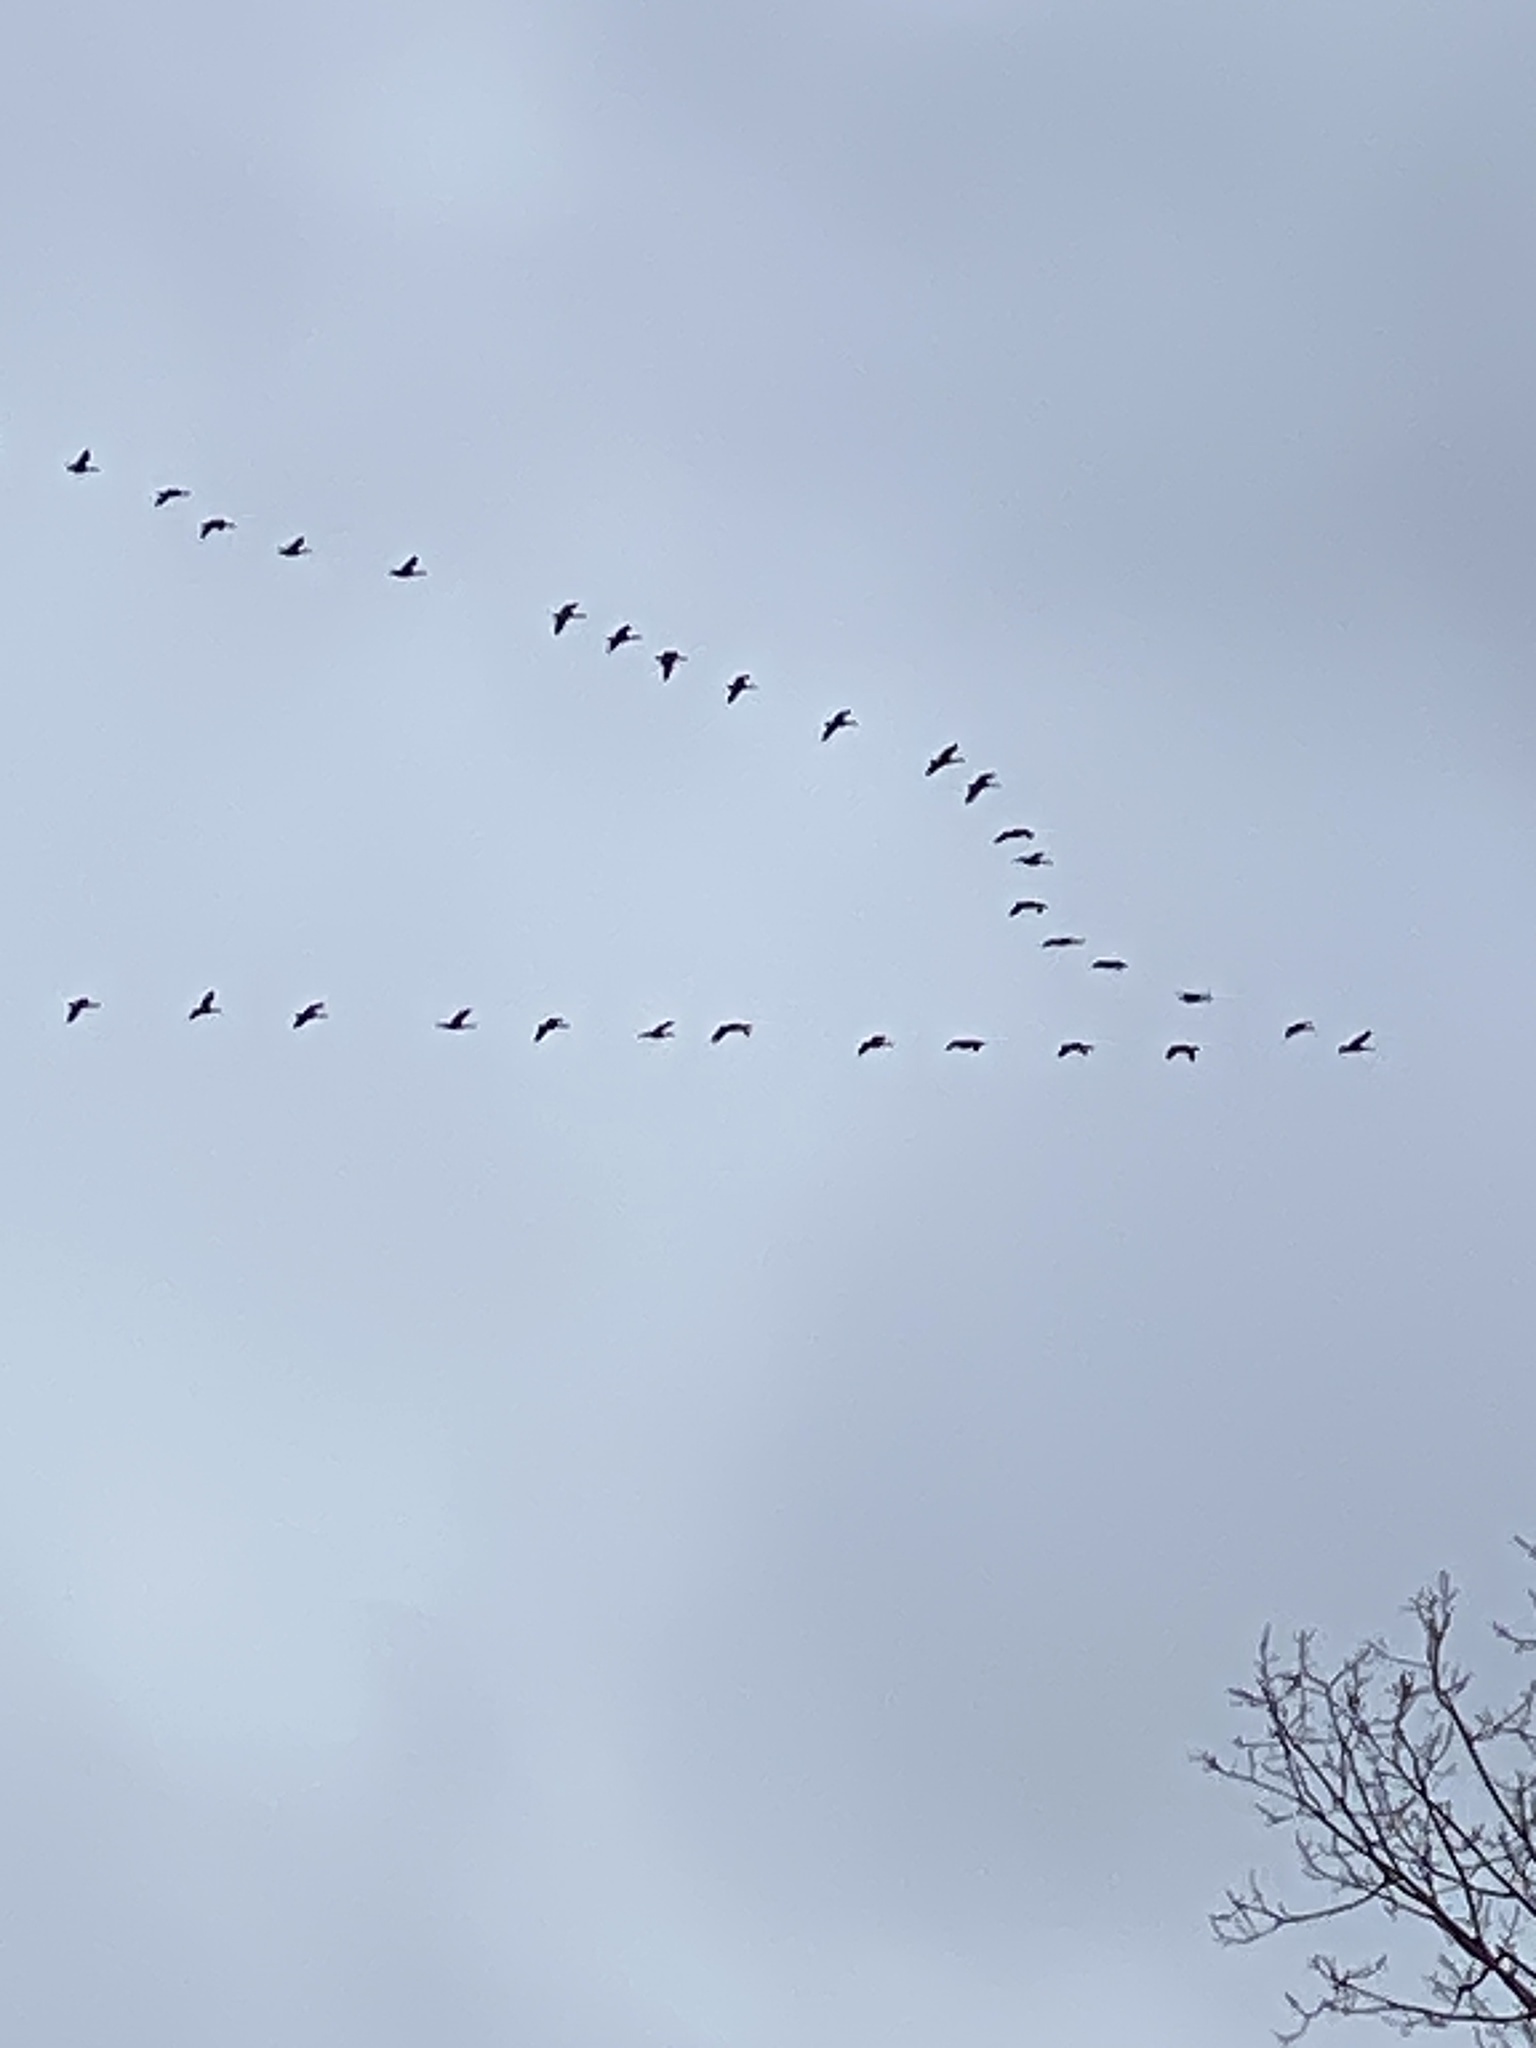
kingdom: Animalia
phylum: Chordata
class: Aves
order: Anseriformes
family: Anatidae
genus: Branta
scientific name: Branta canadensis
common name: Canada goose
